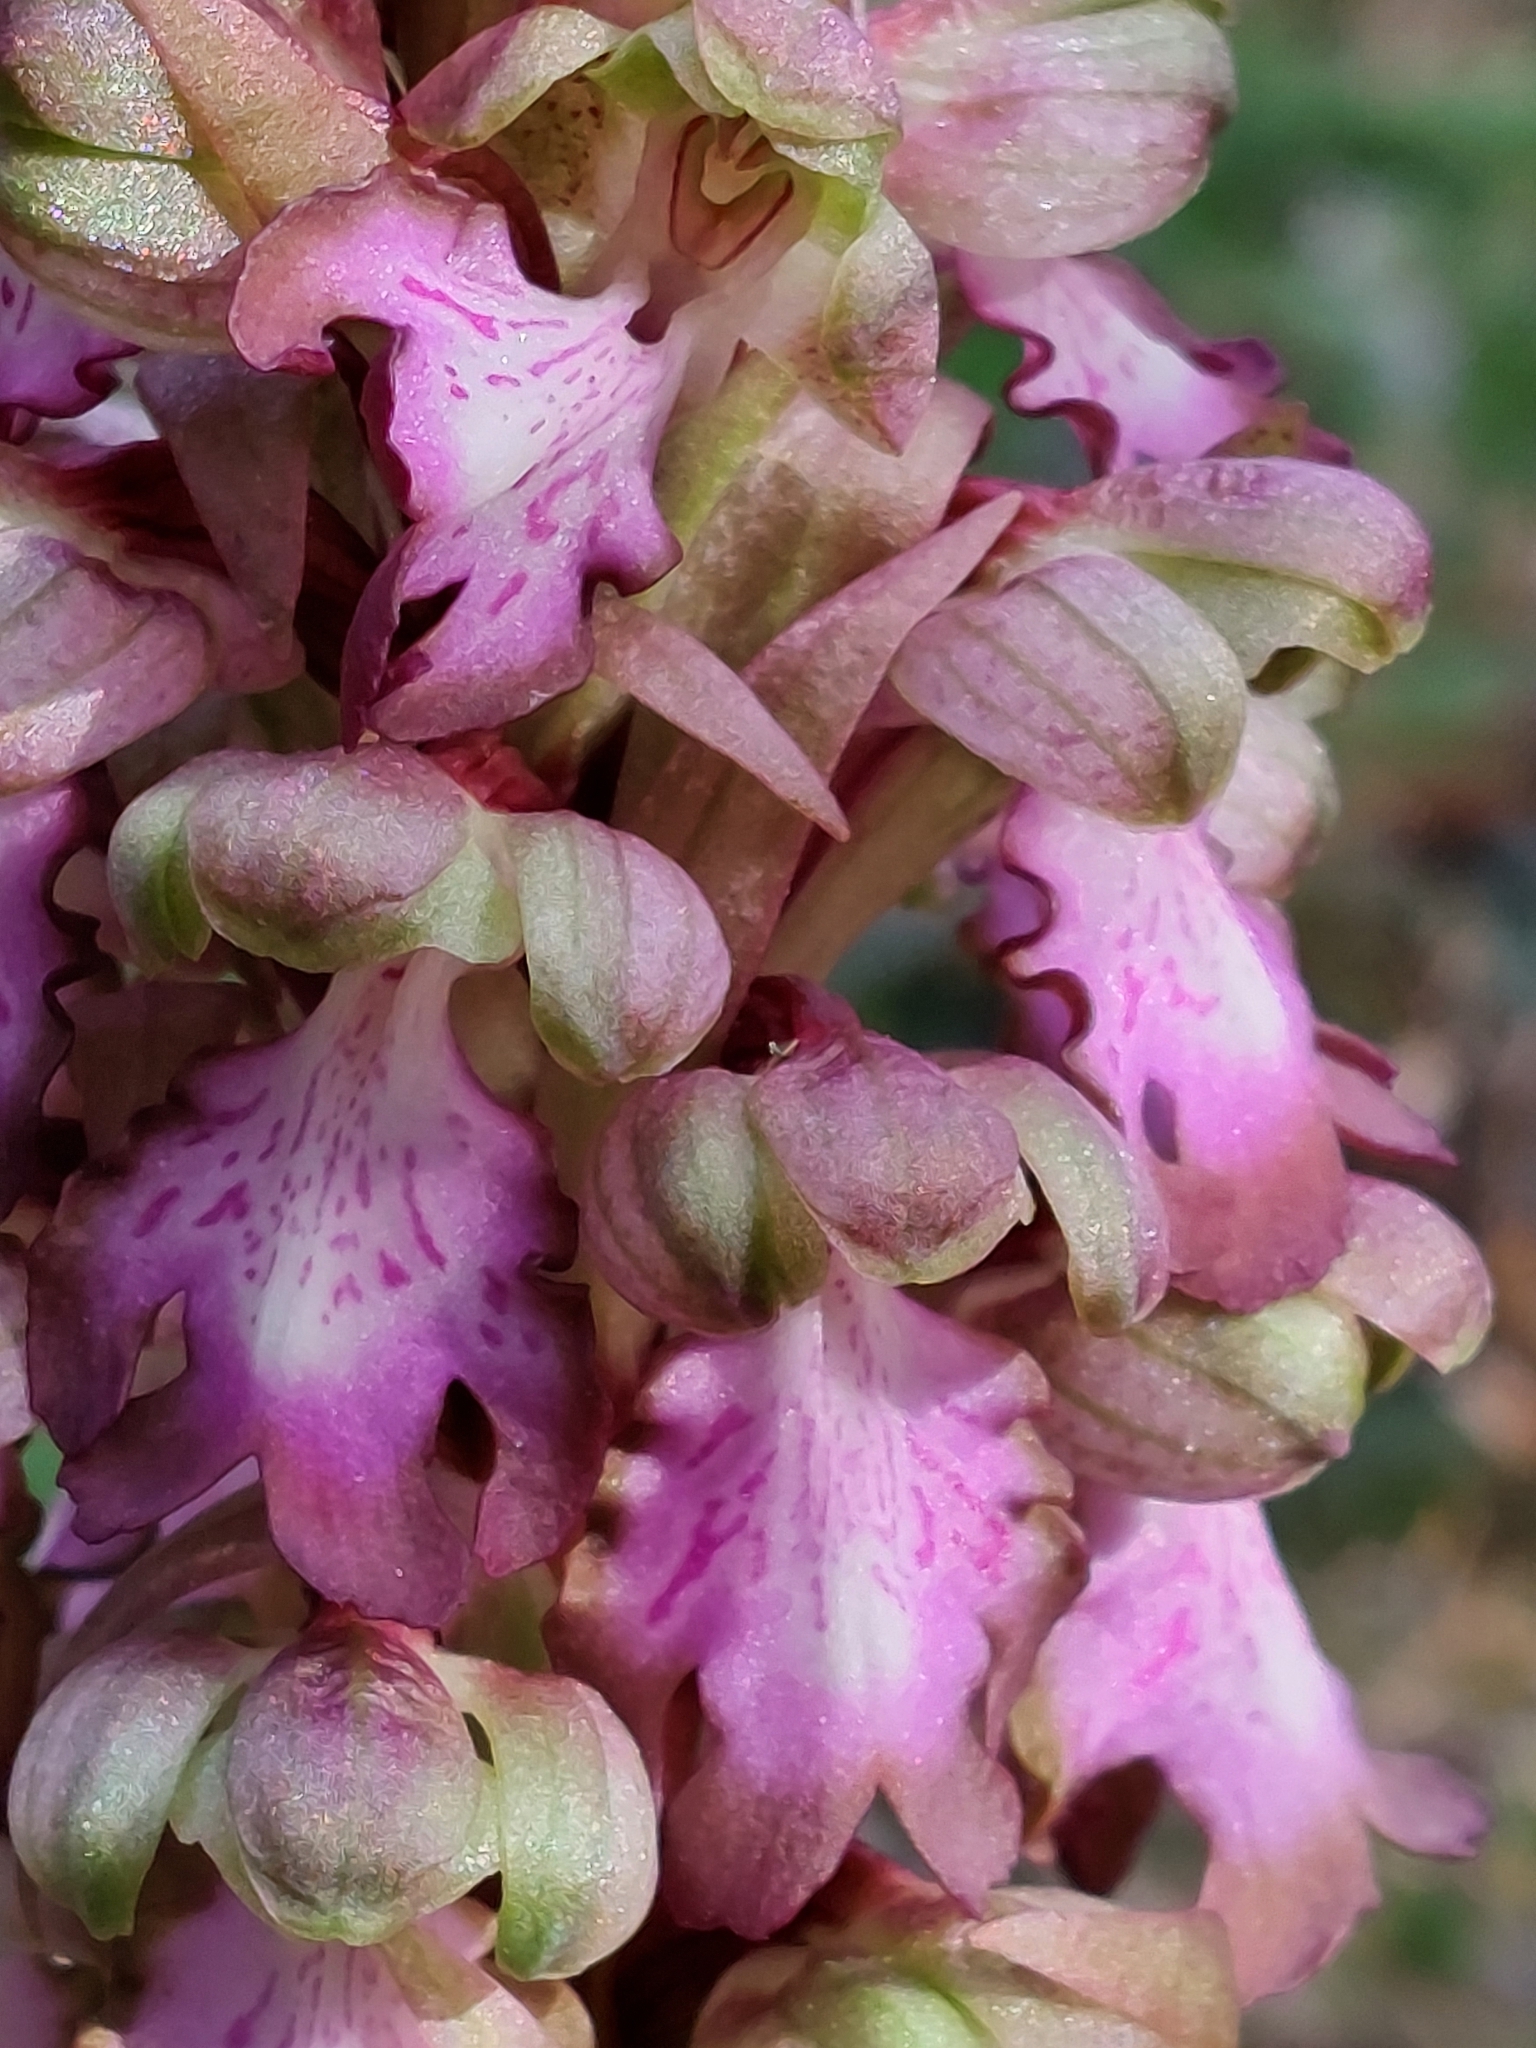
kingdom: Plantae
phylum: Tracheophyta
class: Liliopsida
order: Asparagales
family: Orchidaceae
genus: Himantoglossum
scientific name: Himantoglossum robertianum
